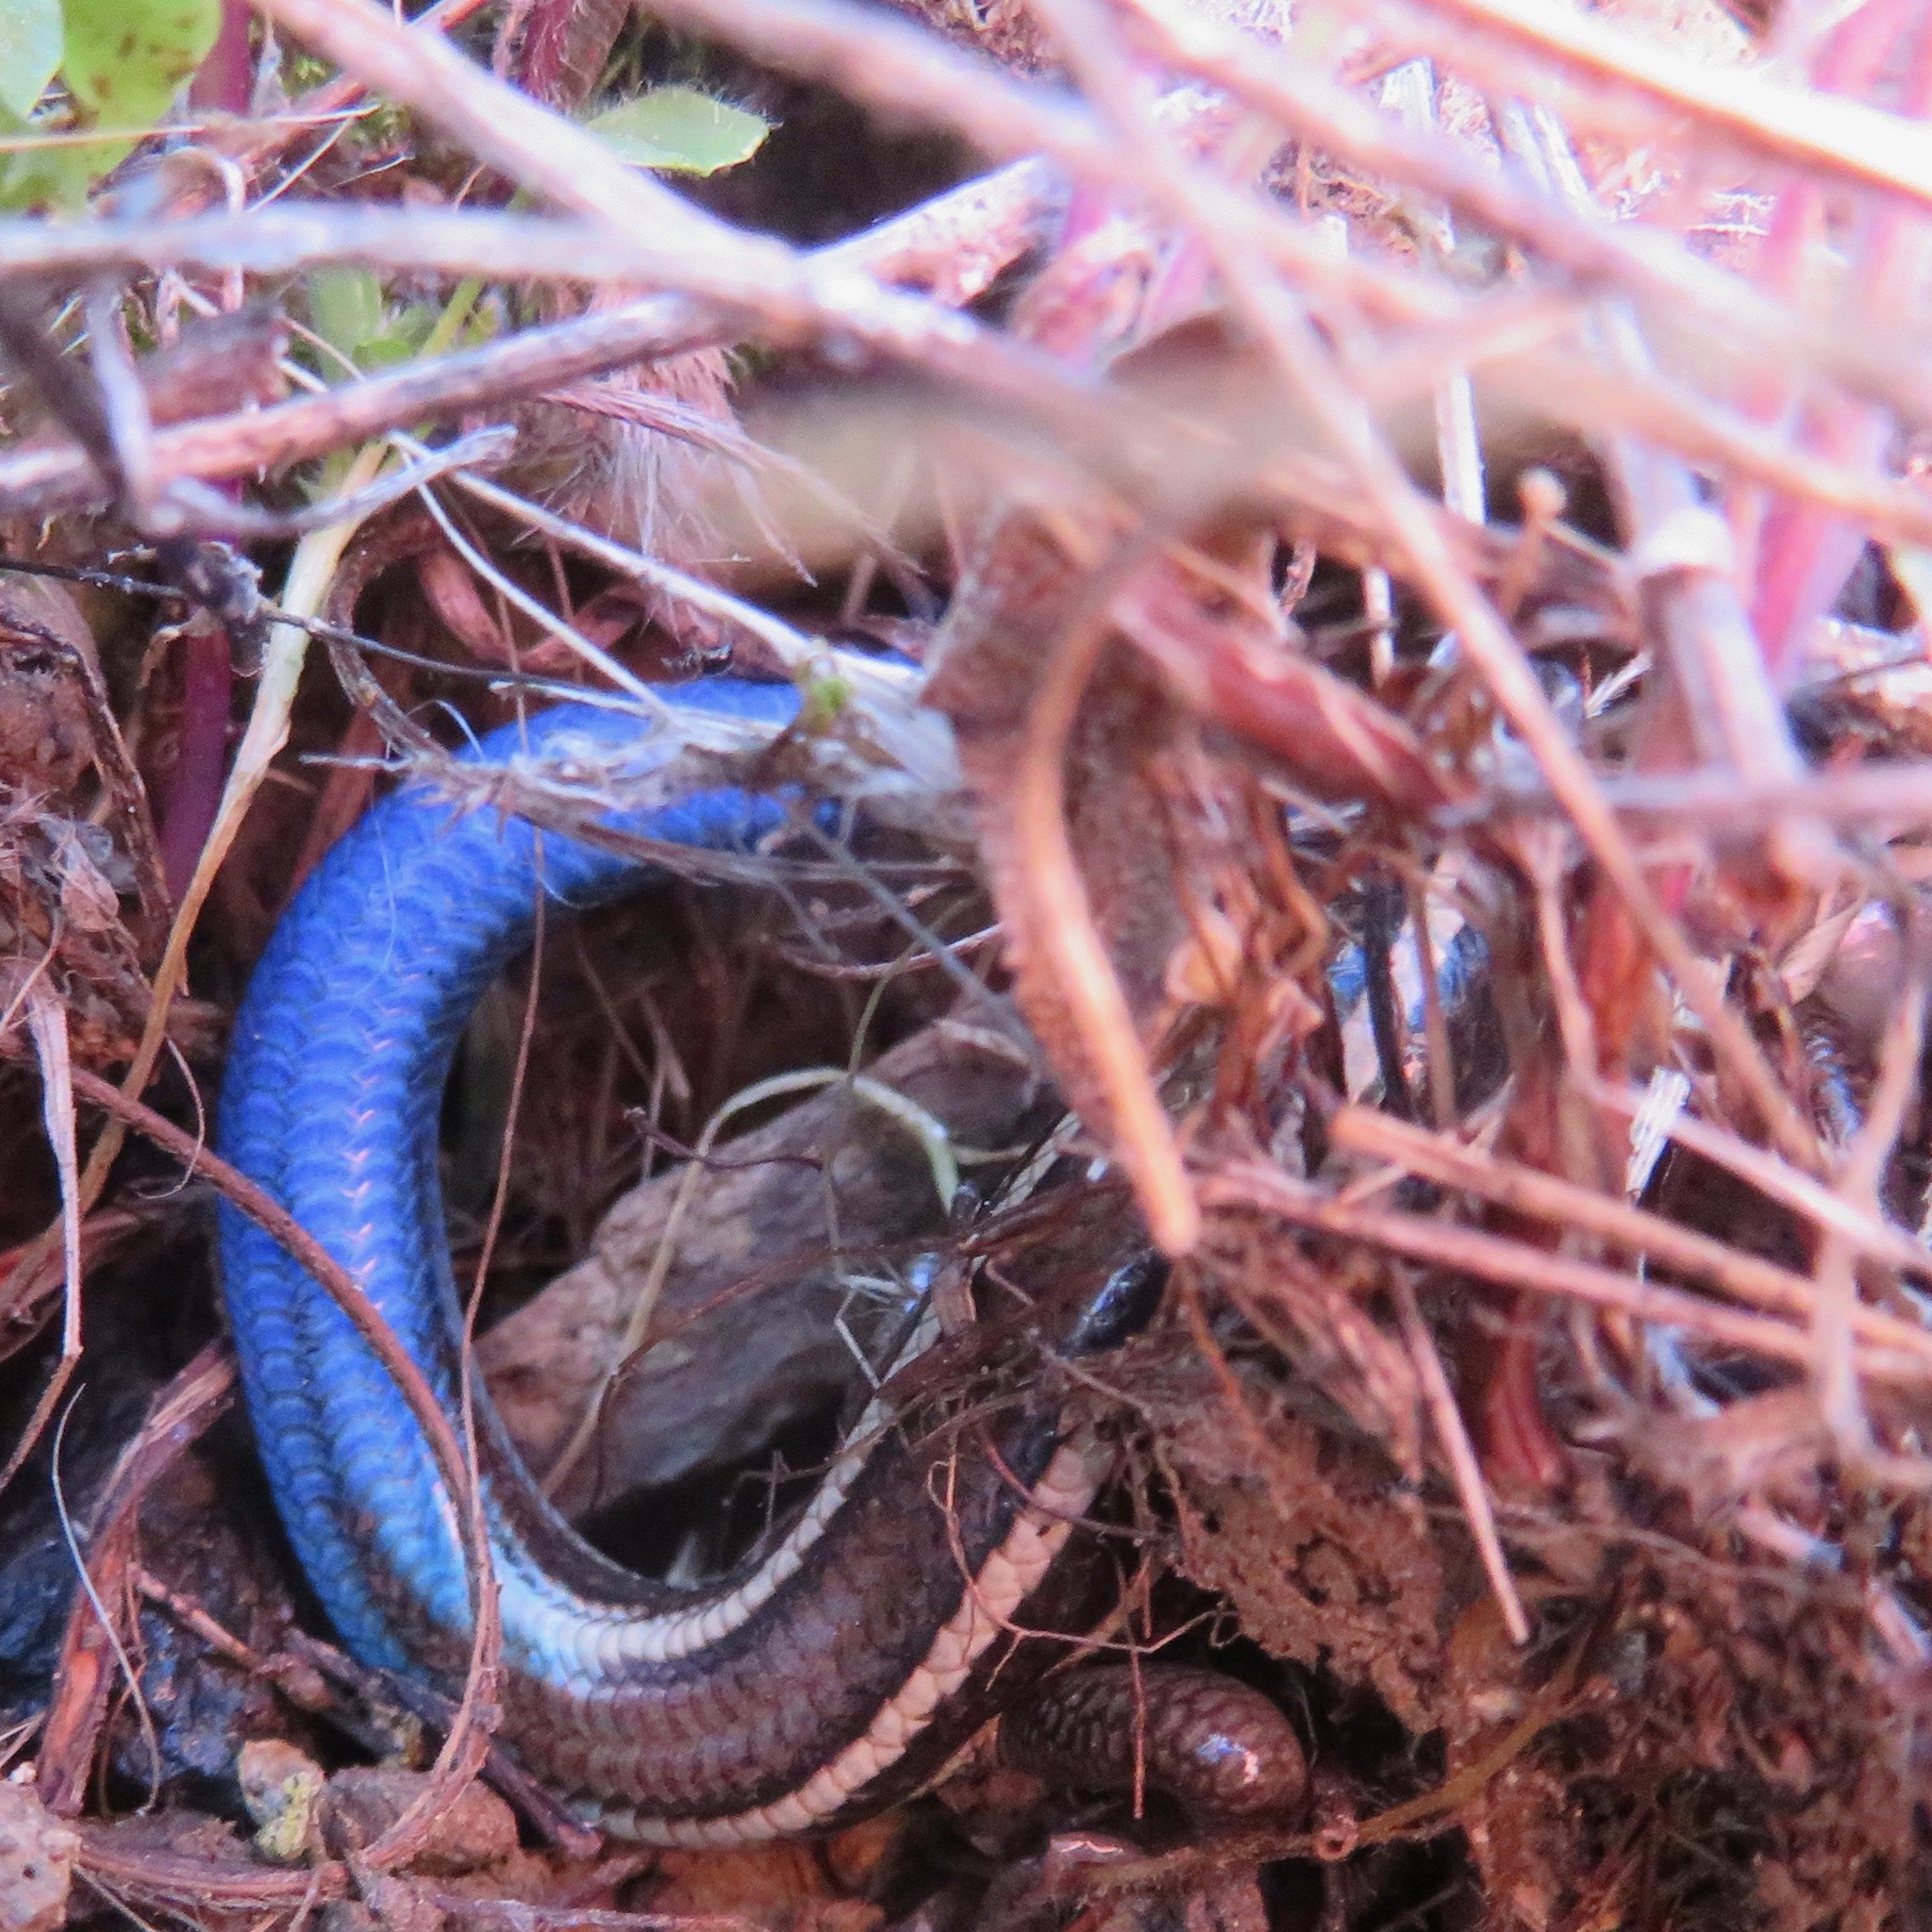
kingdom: Animalia
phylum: Chordata
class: Squamata
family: Scincidae
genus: Plestiodon
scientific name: Plestiodon skiltonianus
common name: Coronado island skink [interparietalis]
